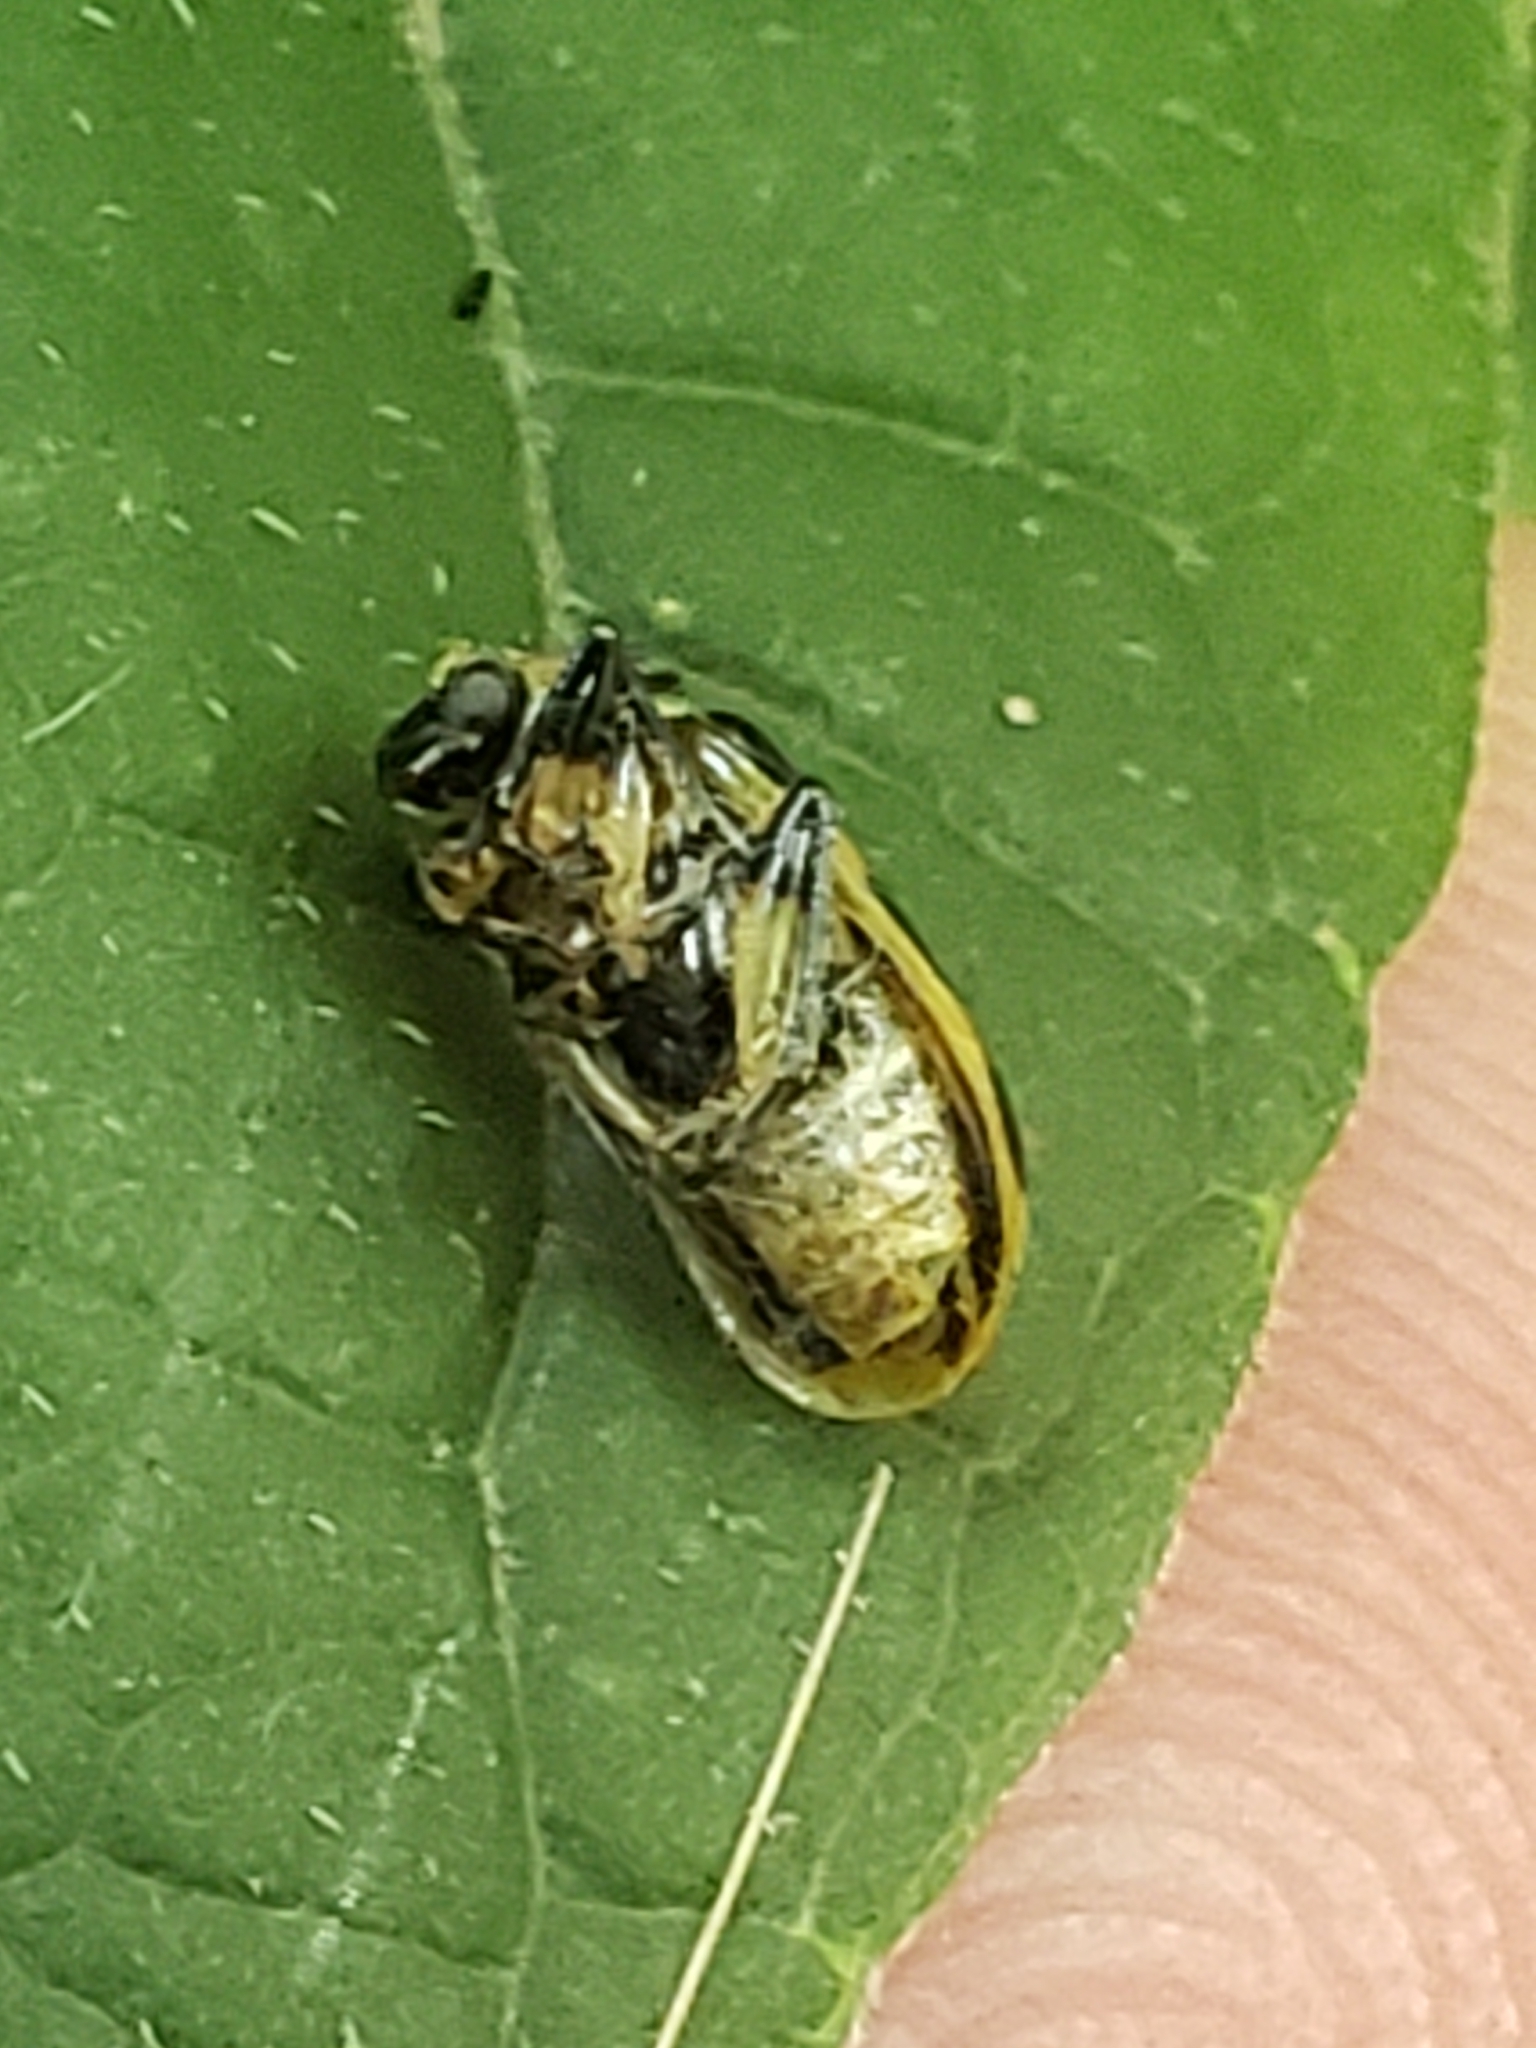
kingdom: Animalia
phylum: Arthropoda
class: Insecta
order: Coleoptera
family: Chrysomelidae
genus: Diabrotica
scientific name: Diabrotica undecimpunctata
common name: Spotted cucumber beetle
